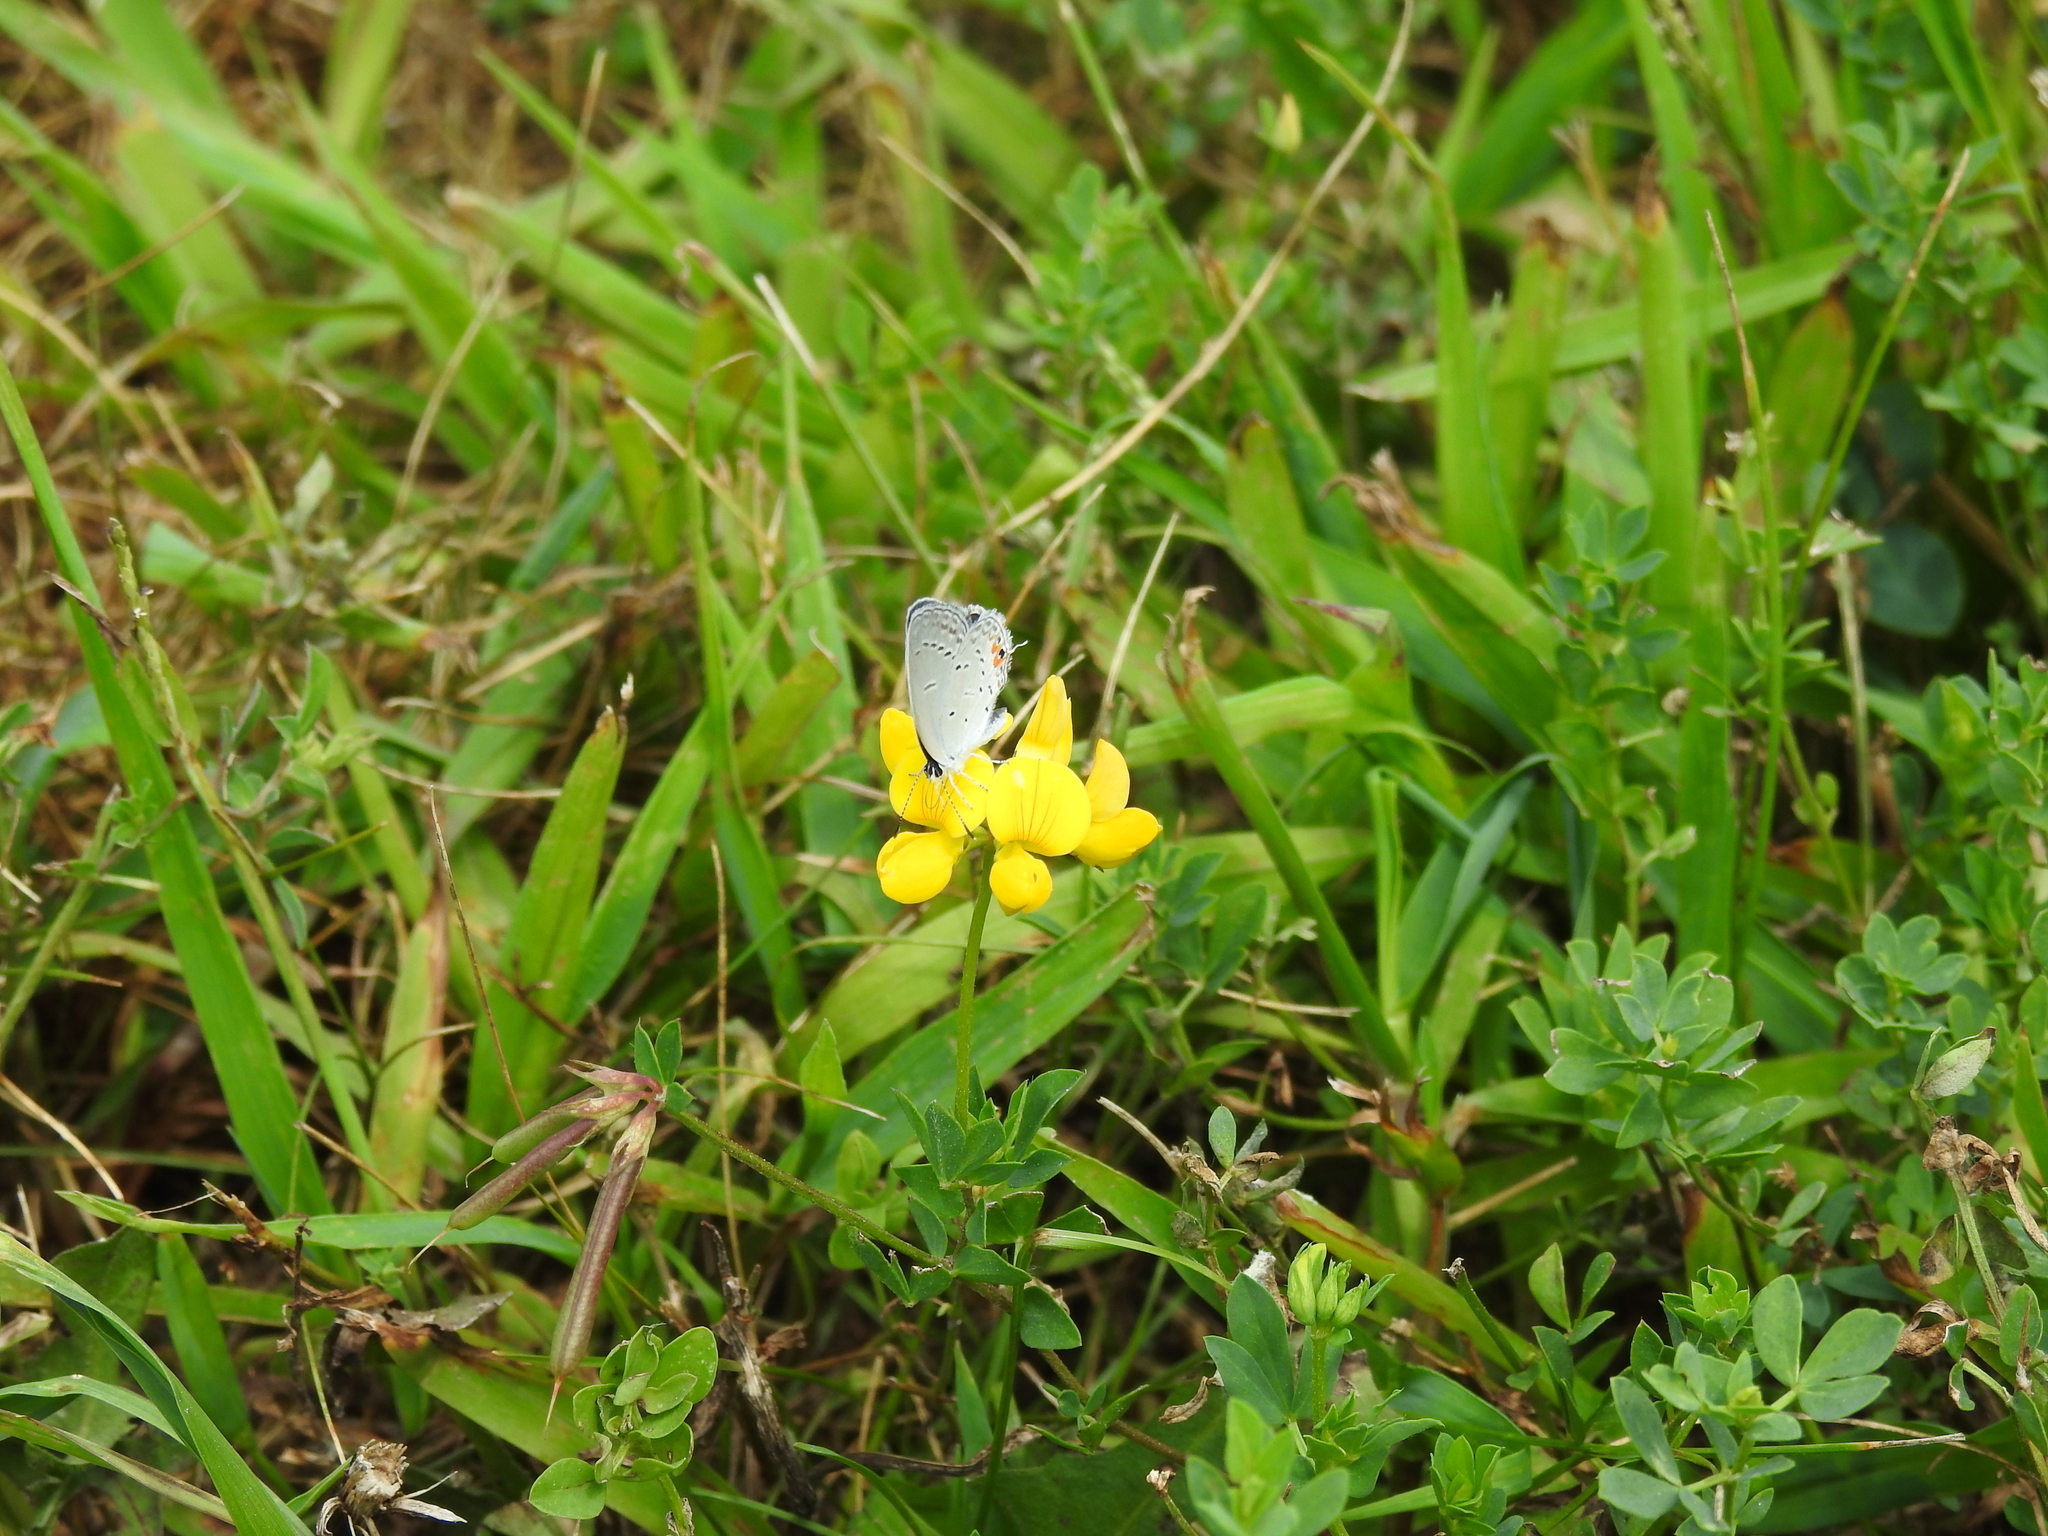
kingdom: Animalia
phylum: Arthropoda
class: Insecta
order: Lepidoptera
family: Lycaenidae
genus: Elkalyce
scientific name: Elkalyce comyntas
